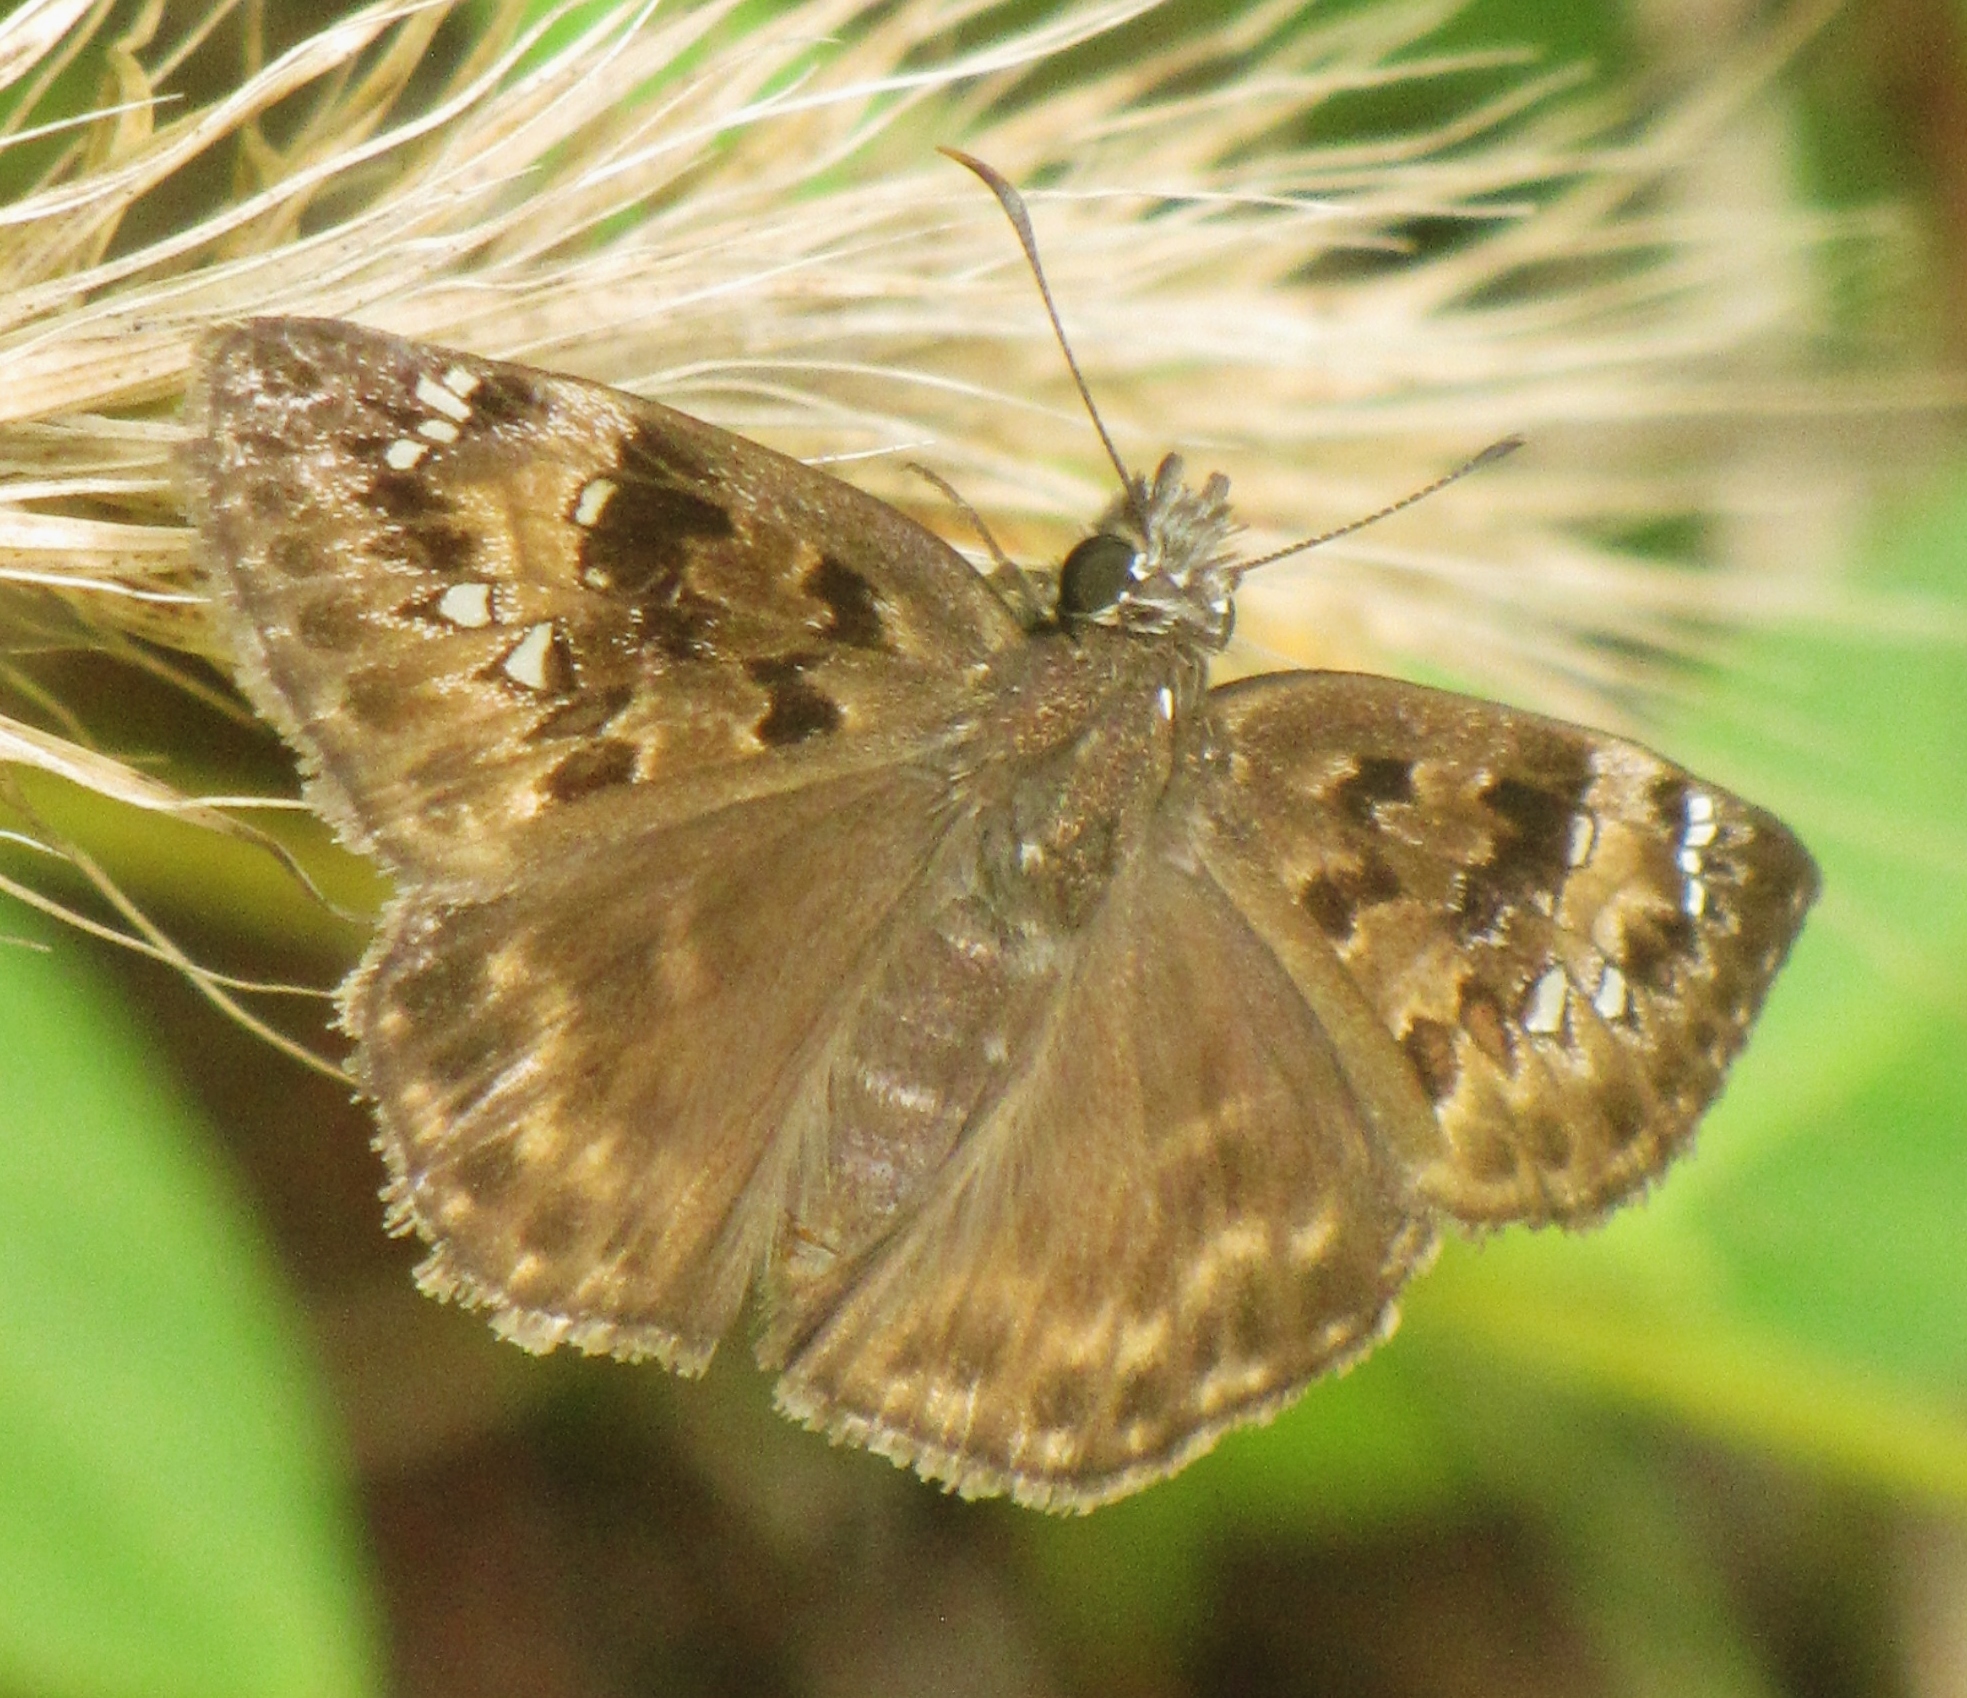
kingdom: Animalia
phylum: Arthropoda
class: Insecta
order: Lepidoptera
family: Hesperiidae
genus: Erynnis
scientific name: Erynnis horatius
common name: Horace's duskywing
